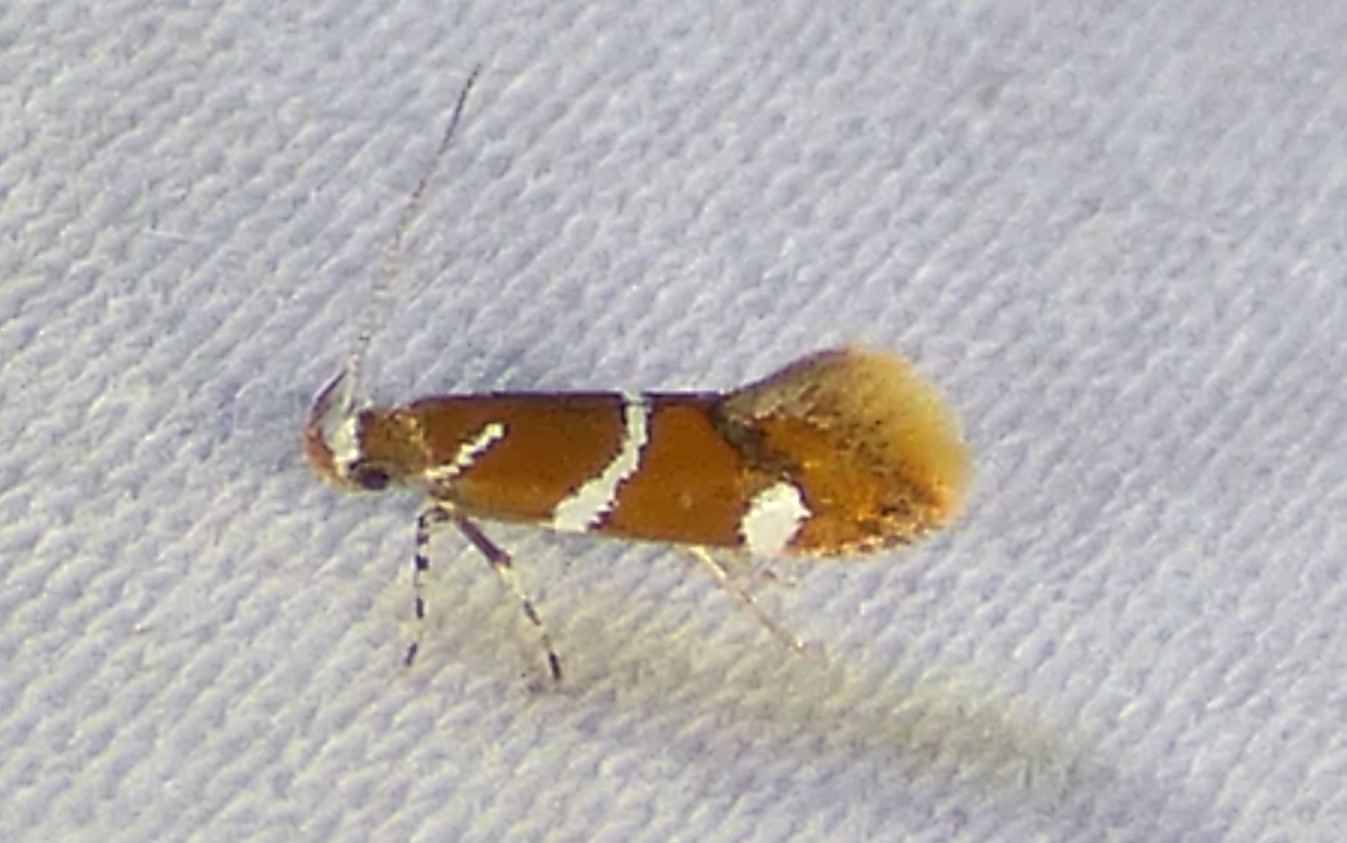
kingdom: Animalia
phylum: Arthropoda
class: Insecta
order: Lepidoptera
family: Oecophoridae
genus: Promalactis
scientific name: Promalactis suzukiella
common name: Moth
